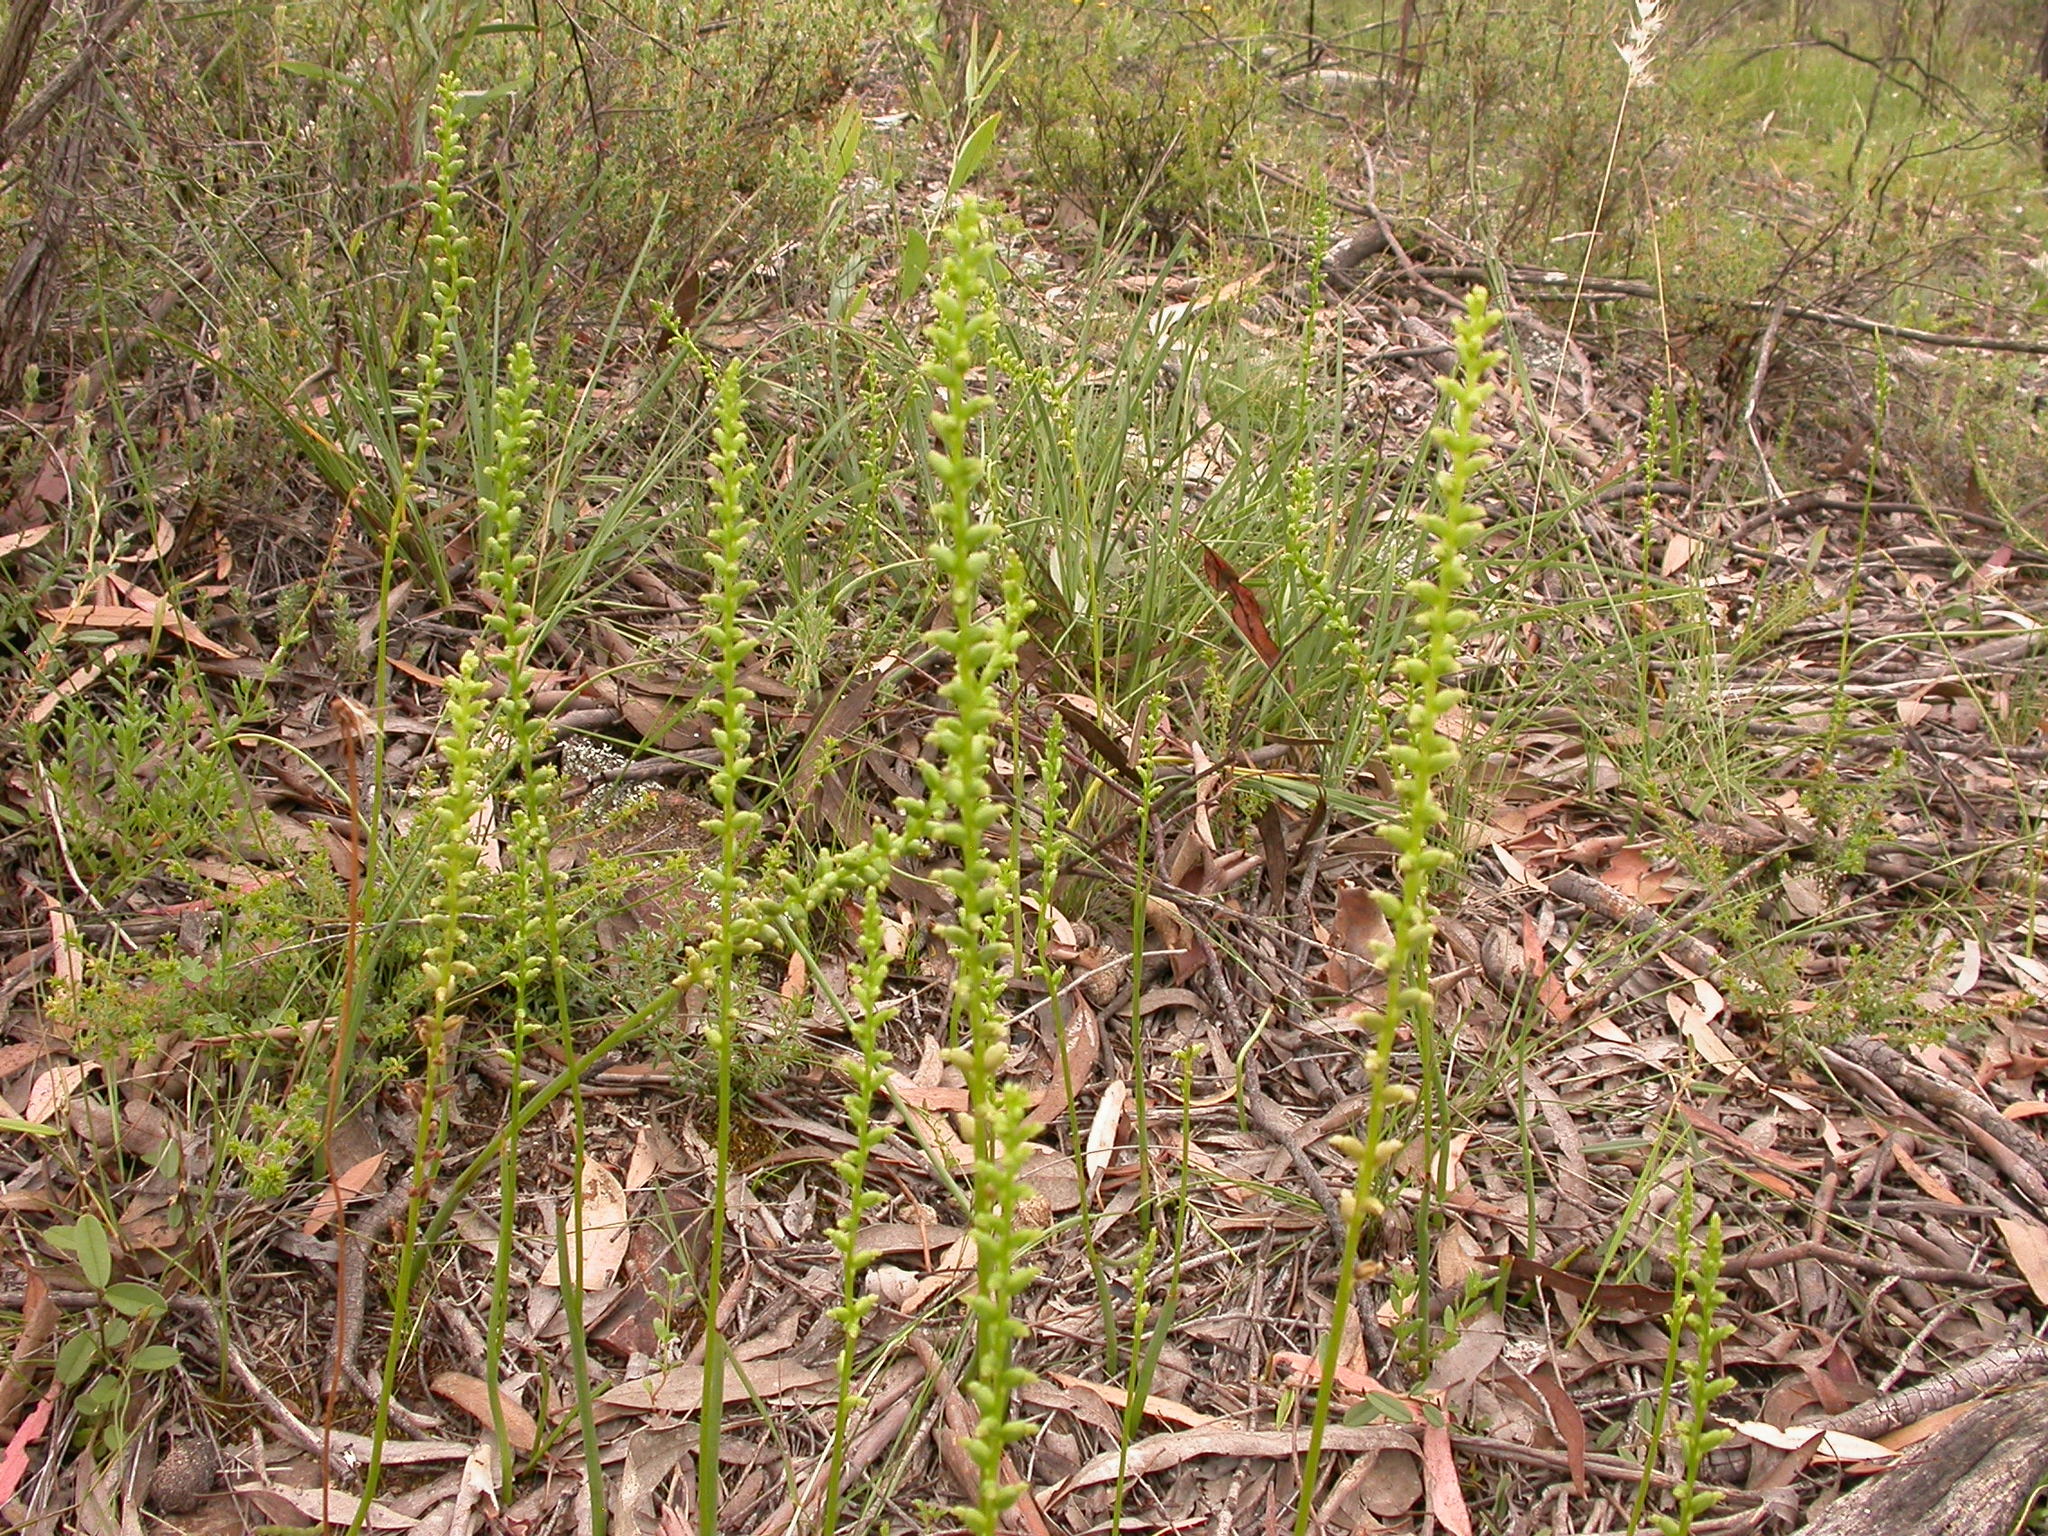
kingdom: Plantae
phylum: Tracheophyta
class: Liliopsida
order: Asparagales
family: Orchidaceae
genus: Microtis
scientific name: Microtis parviflora
